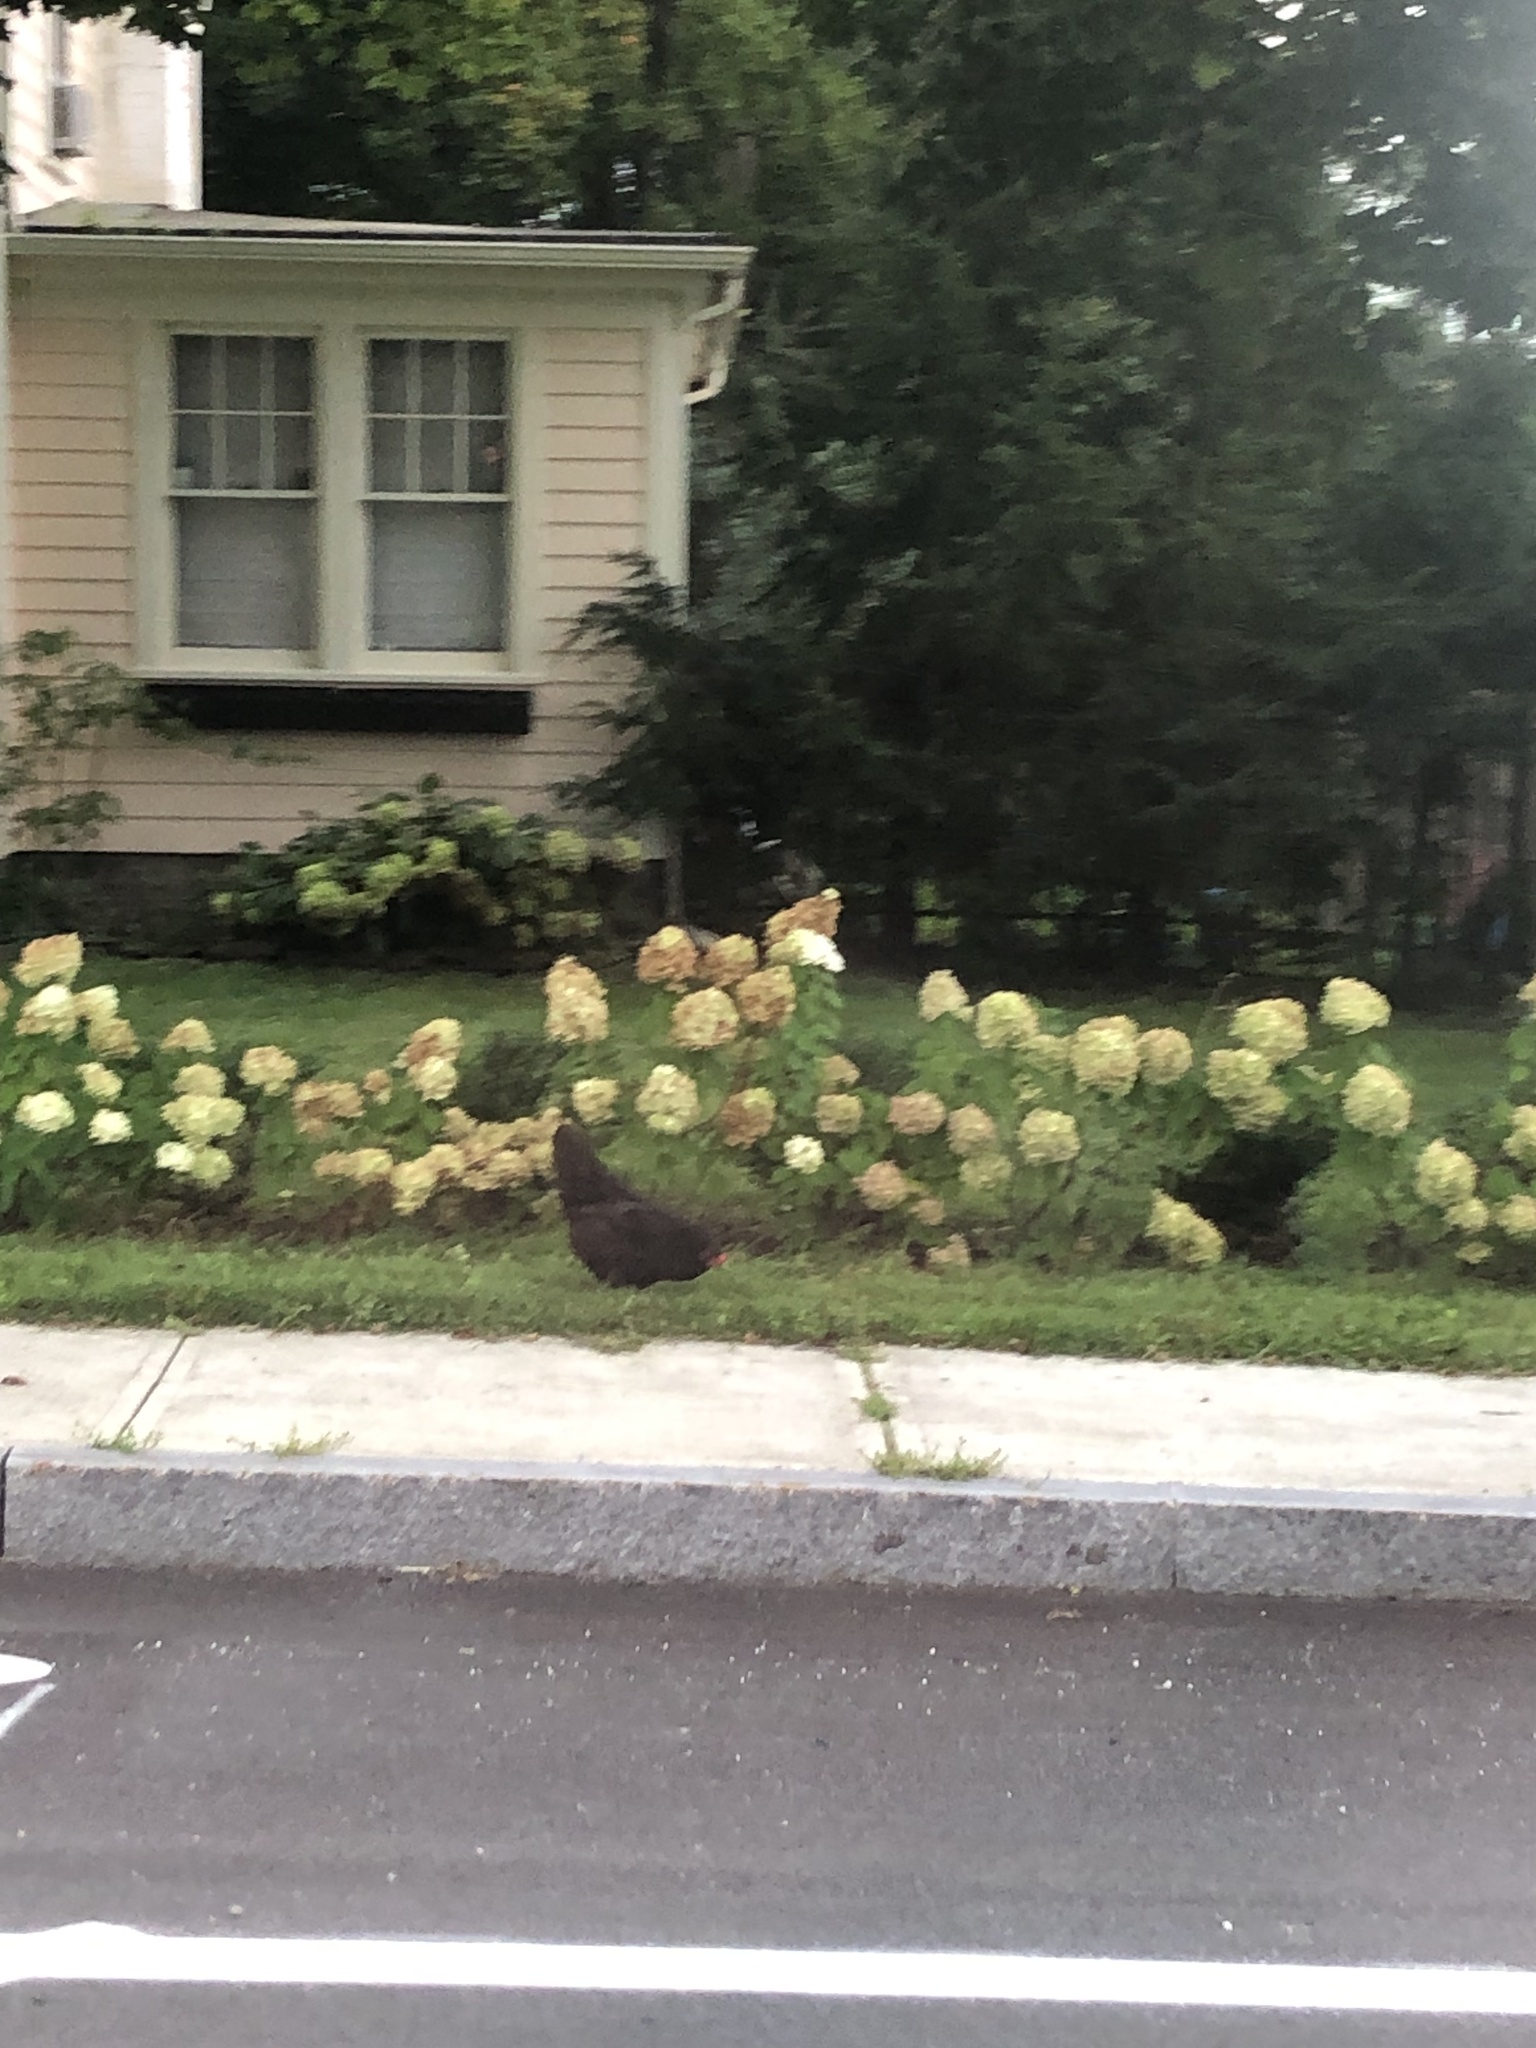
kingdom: Animalia
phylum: Chordata
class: Aves
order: Galliformes
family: Phasianidae
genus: Gallus
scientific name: Gallus gallus
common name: Red junglefowl
